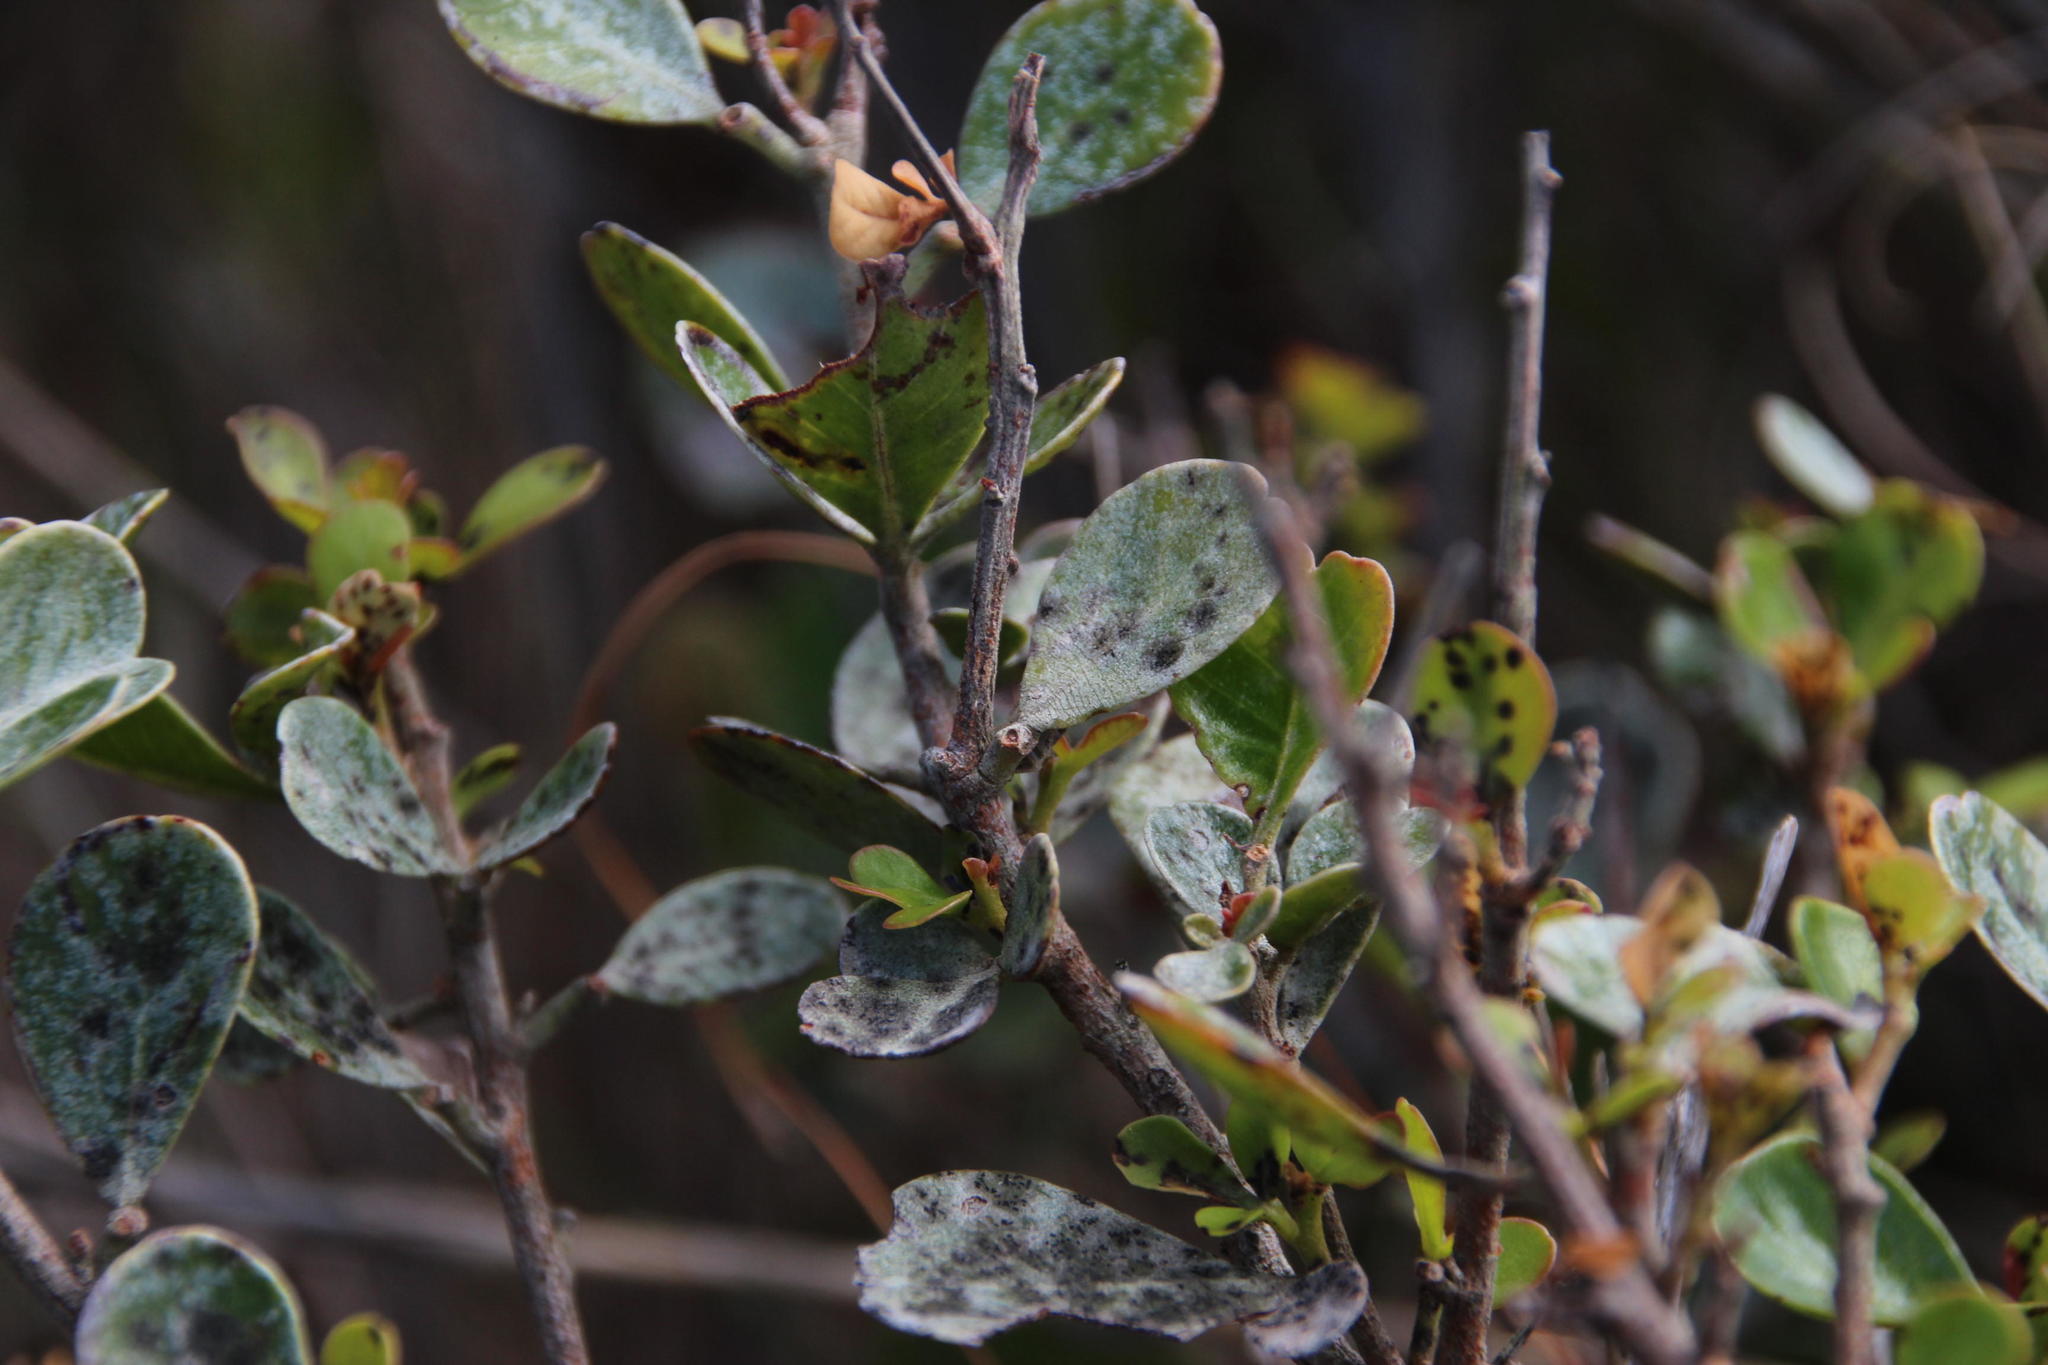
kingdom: Plantae
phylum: Tracheophyta
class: Magnoliopsida
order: Sapindales
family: Anacardiaceae
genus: Searsia
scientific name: Searsia lucida
